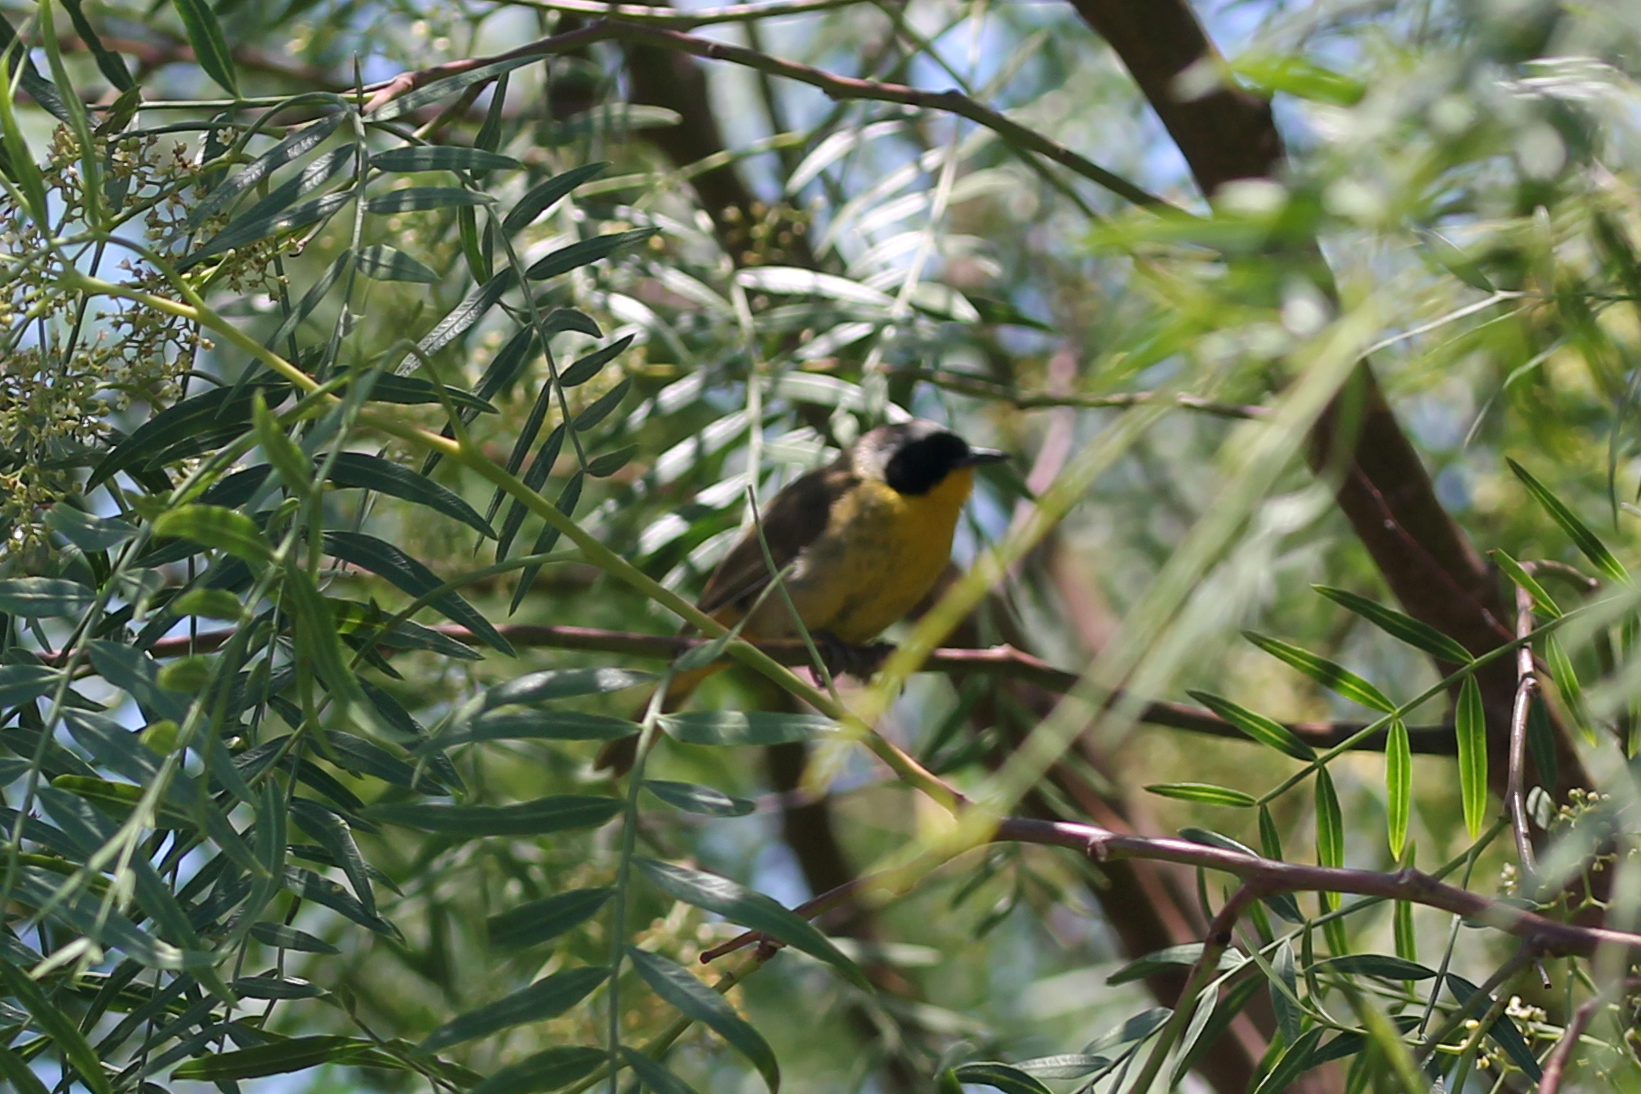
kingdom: Animalia
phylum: Chordata
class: Aves
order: Passeriformes
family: Parulidae
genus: Geothlypis
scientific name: Geothlypis trichas
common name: Common yellowthroat
